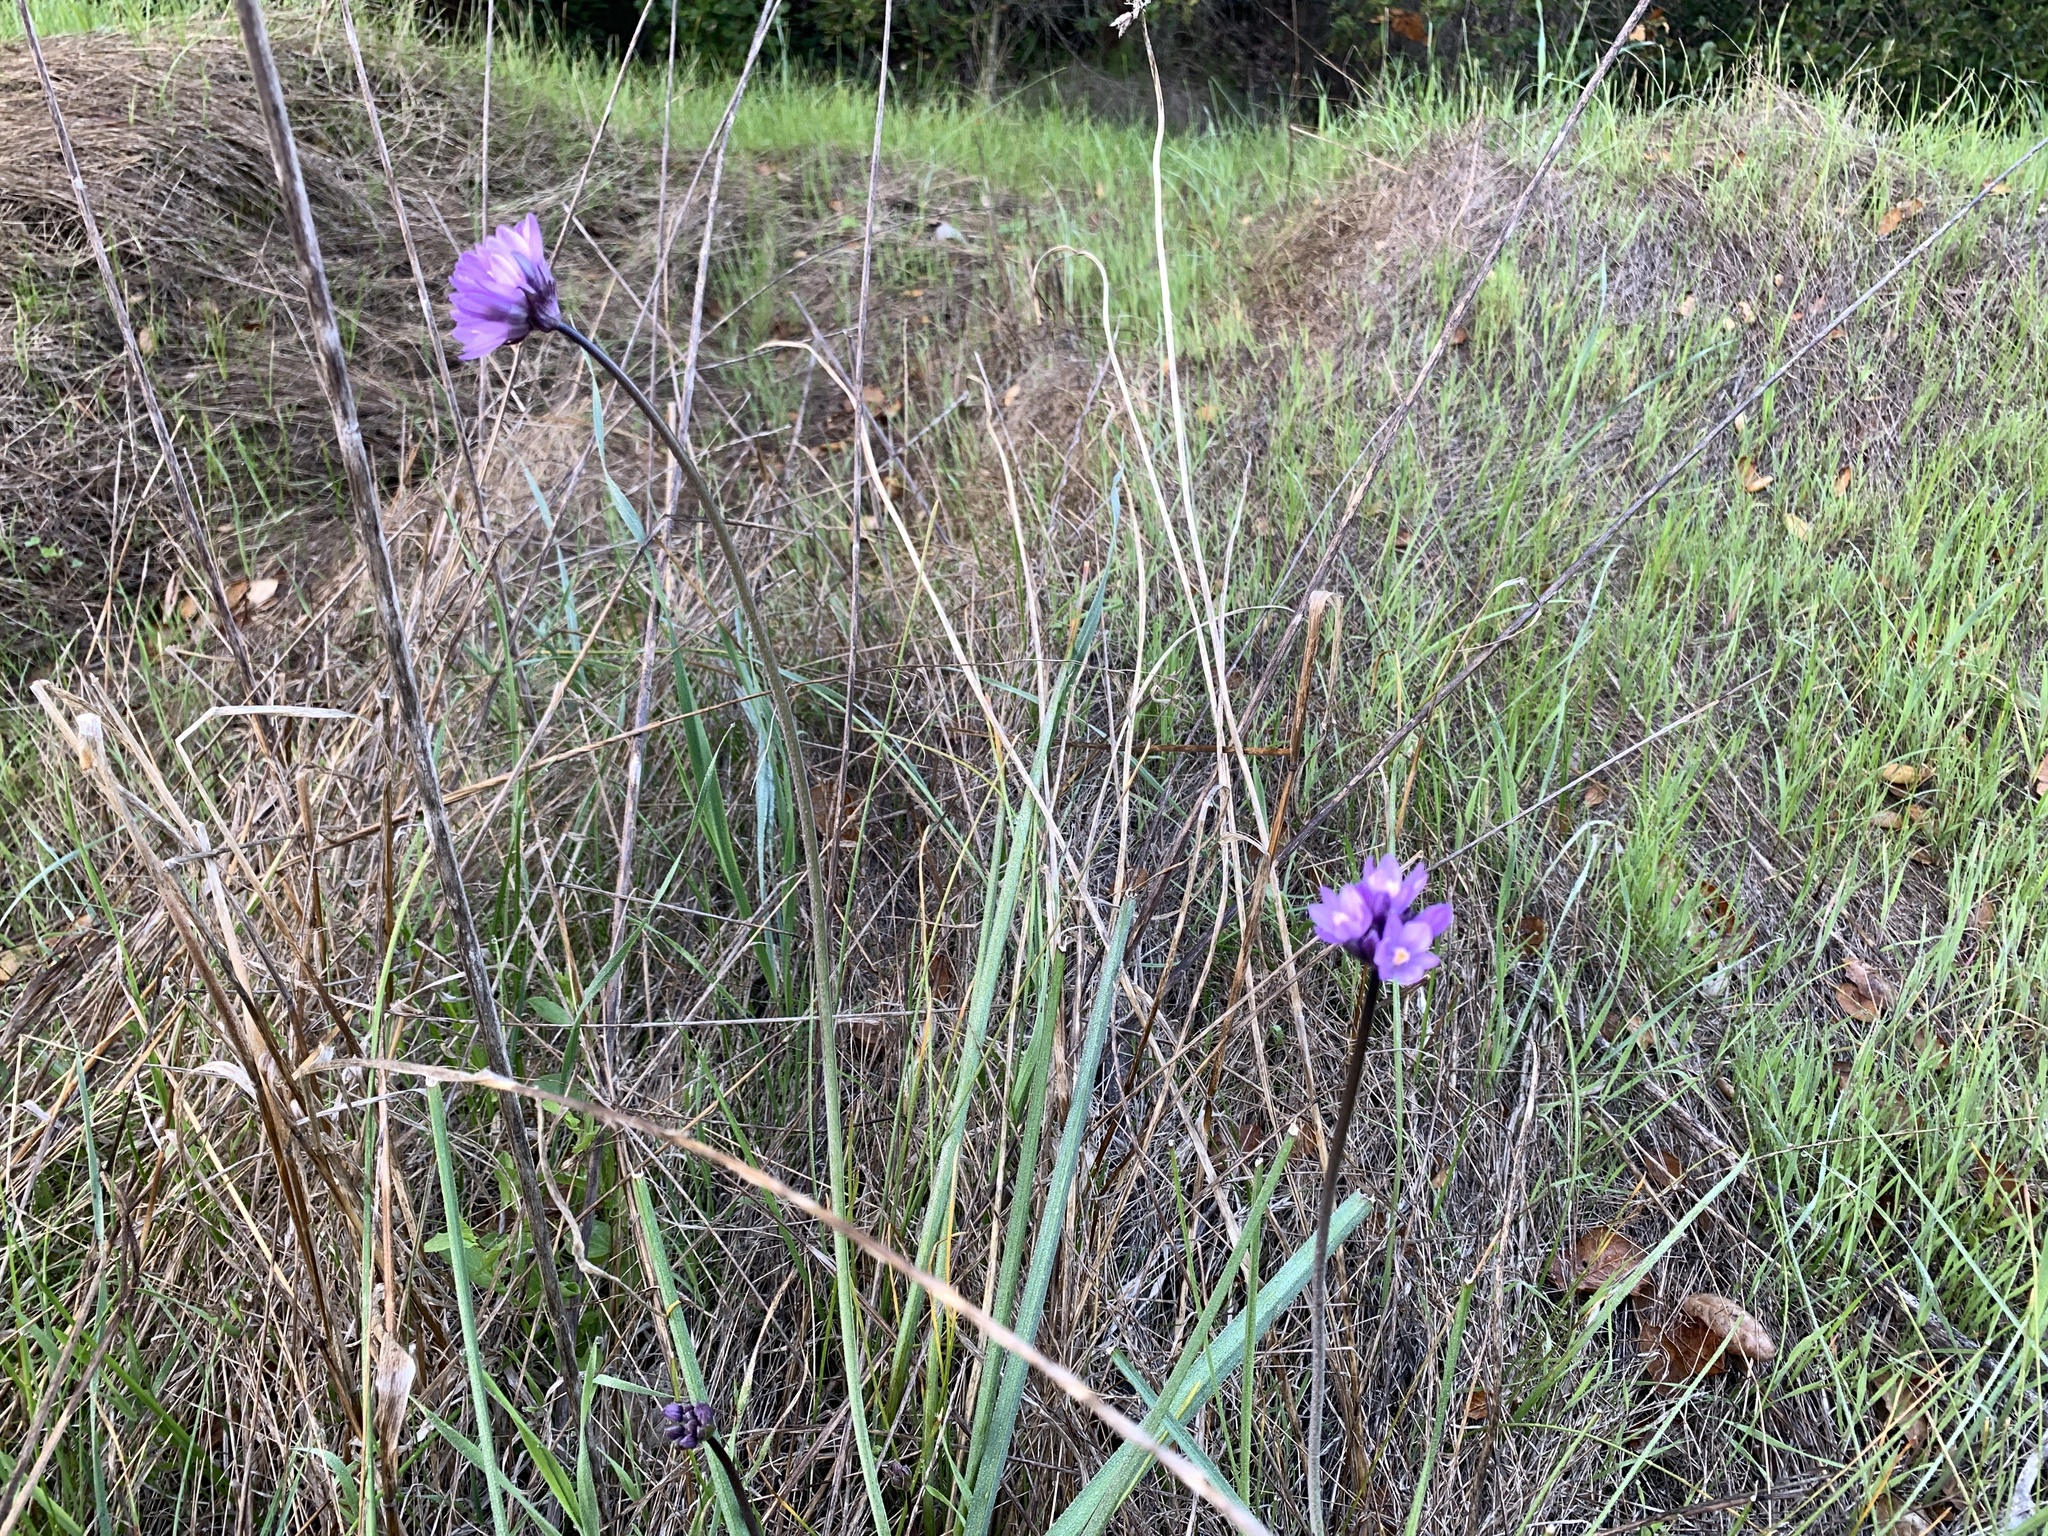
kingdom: Plantae
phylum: Tracheophyta
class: Liliopsida
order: Asparagales
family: Asparagaceae
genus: Dipterostemon
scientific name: Dipterostemon capitatus
